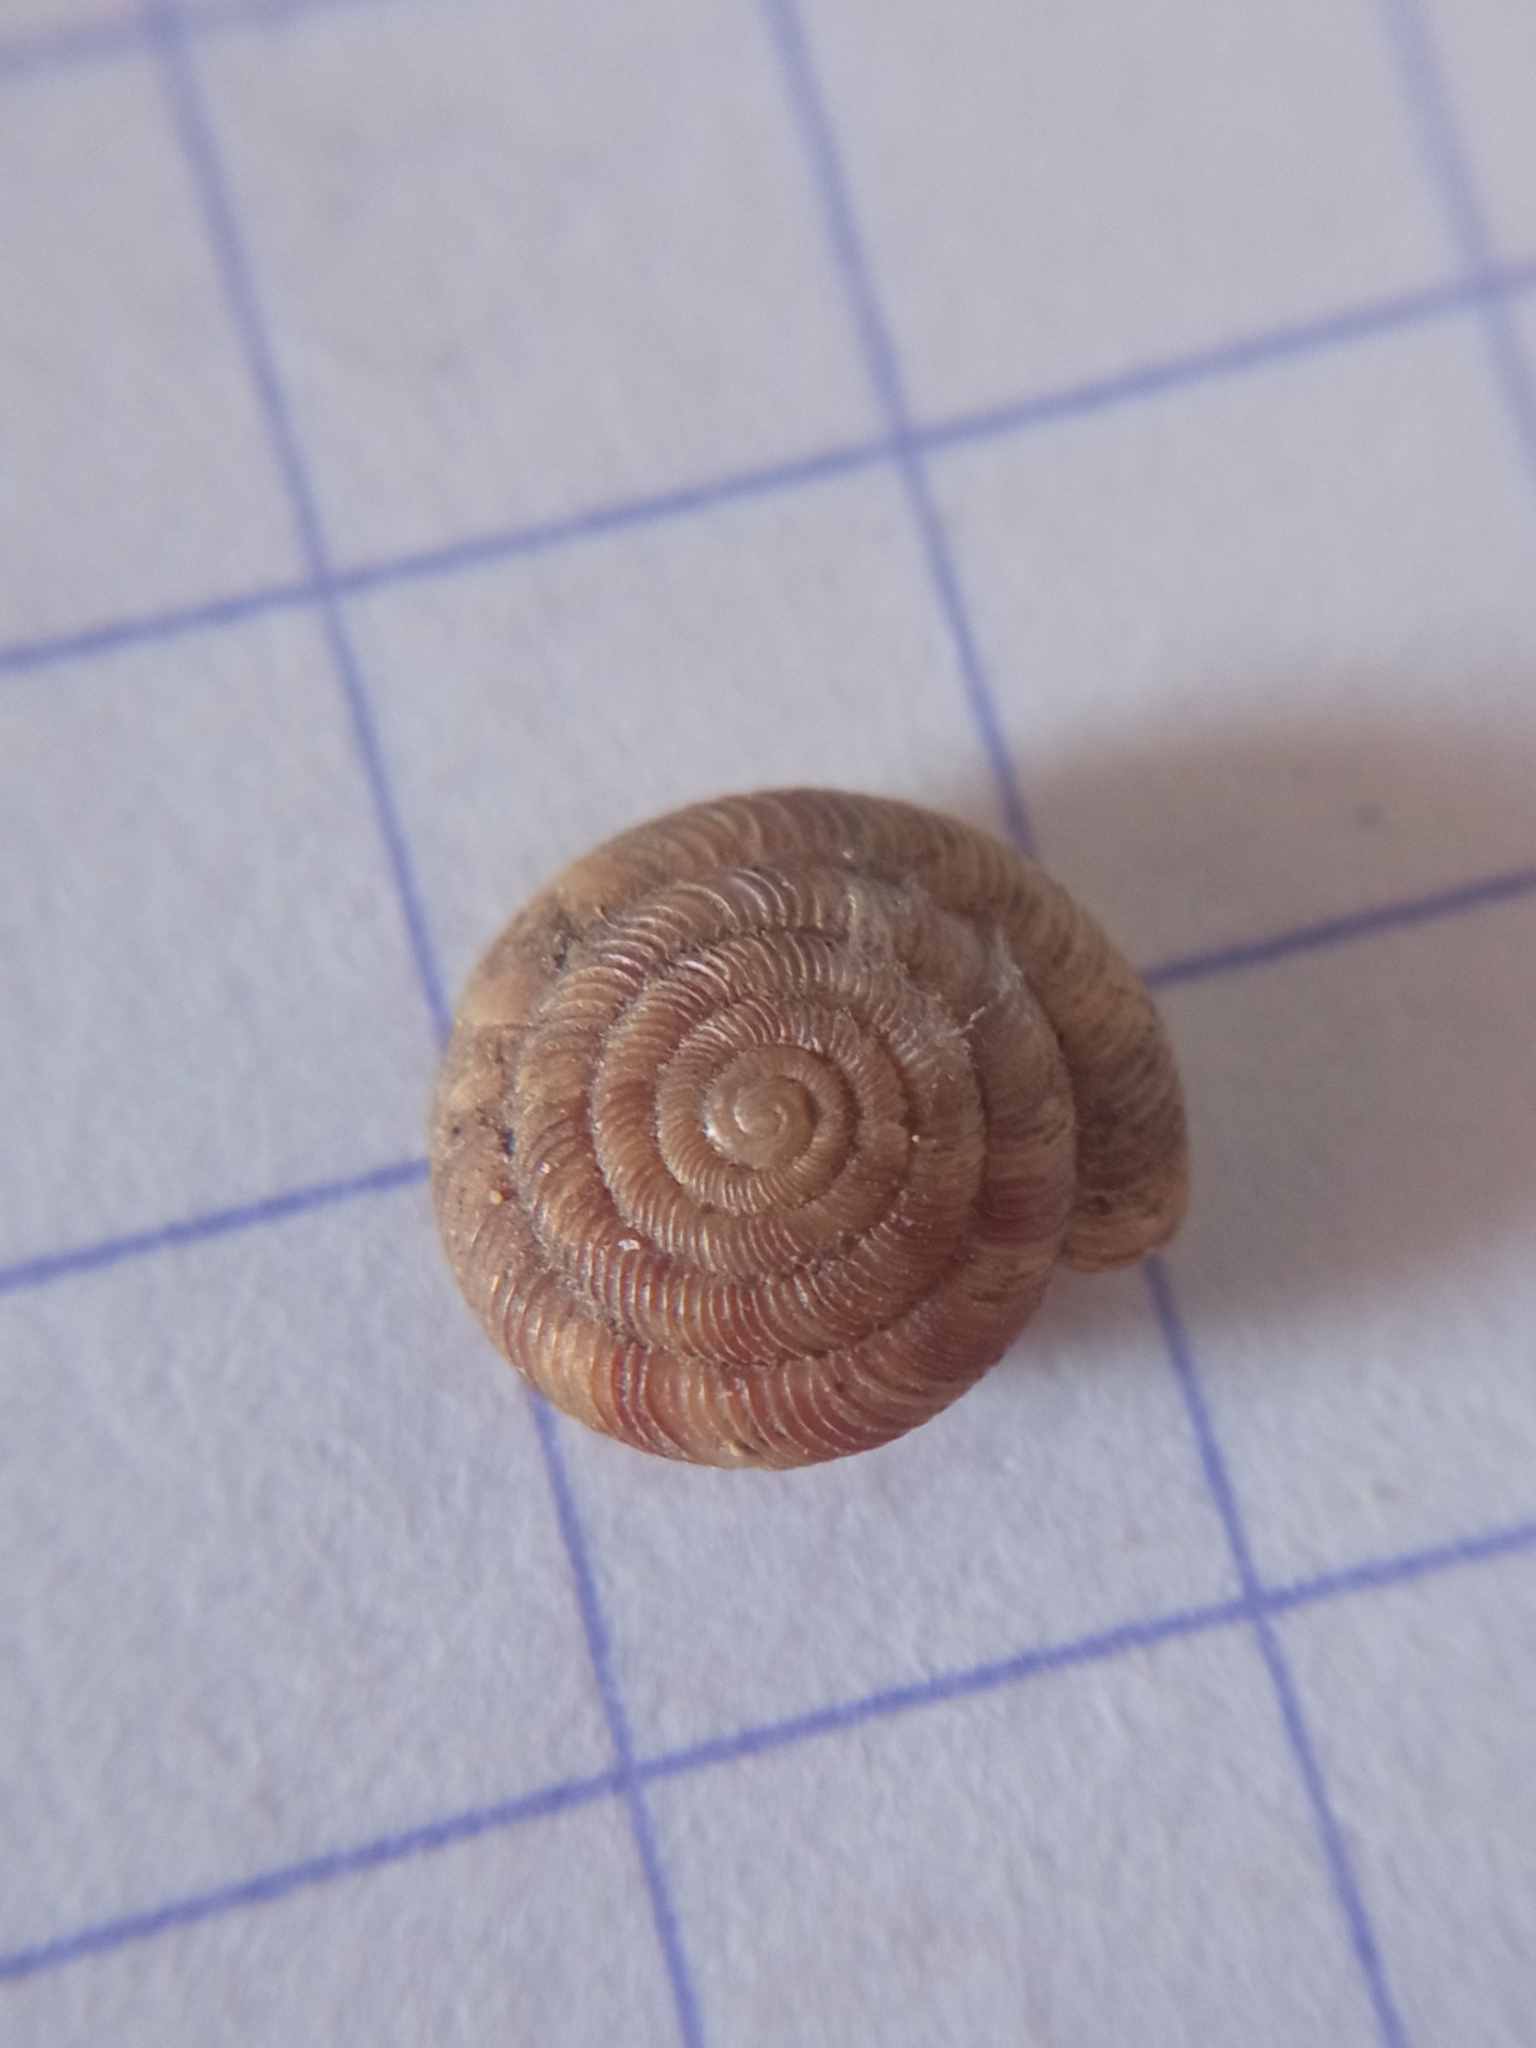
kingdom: Animalia
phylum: Mollusca
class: Gastropoda
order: Stylommatophora
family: Discidae
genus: Discus
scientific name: Discus rotundatus
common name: Rounded snail
